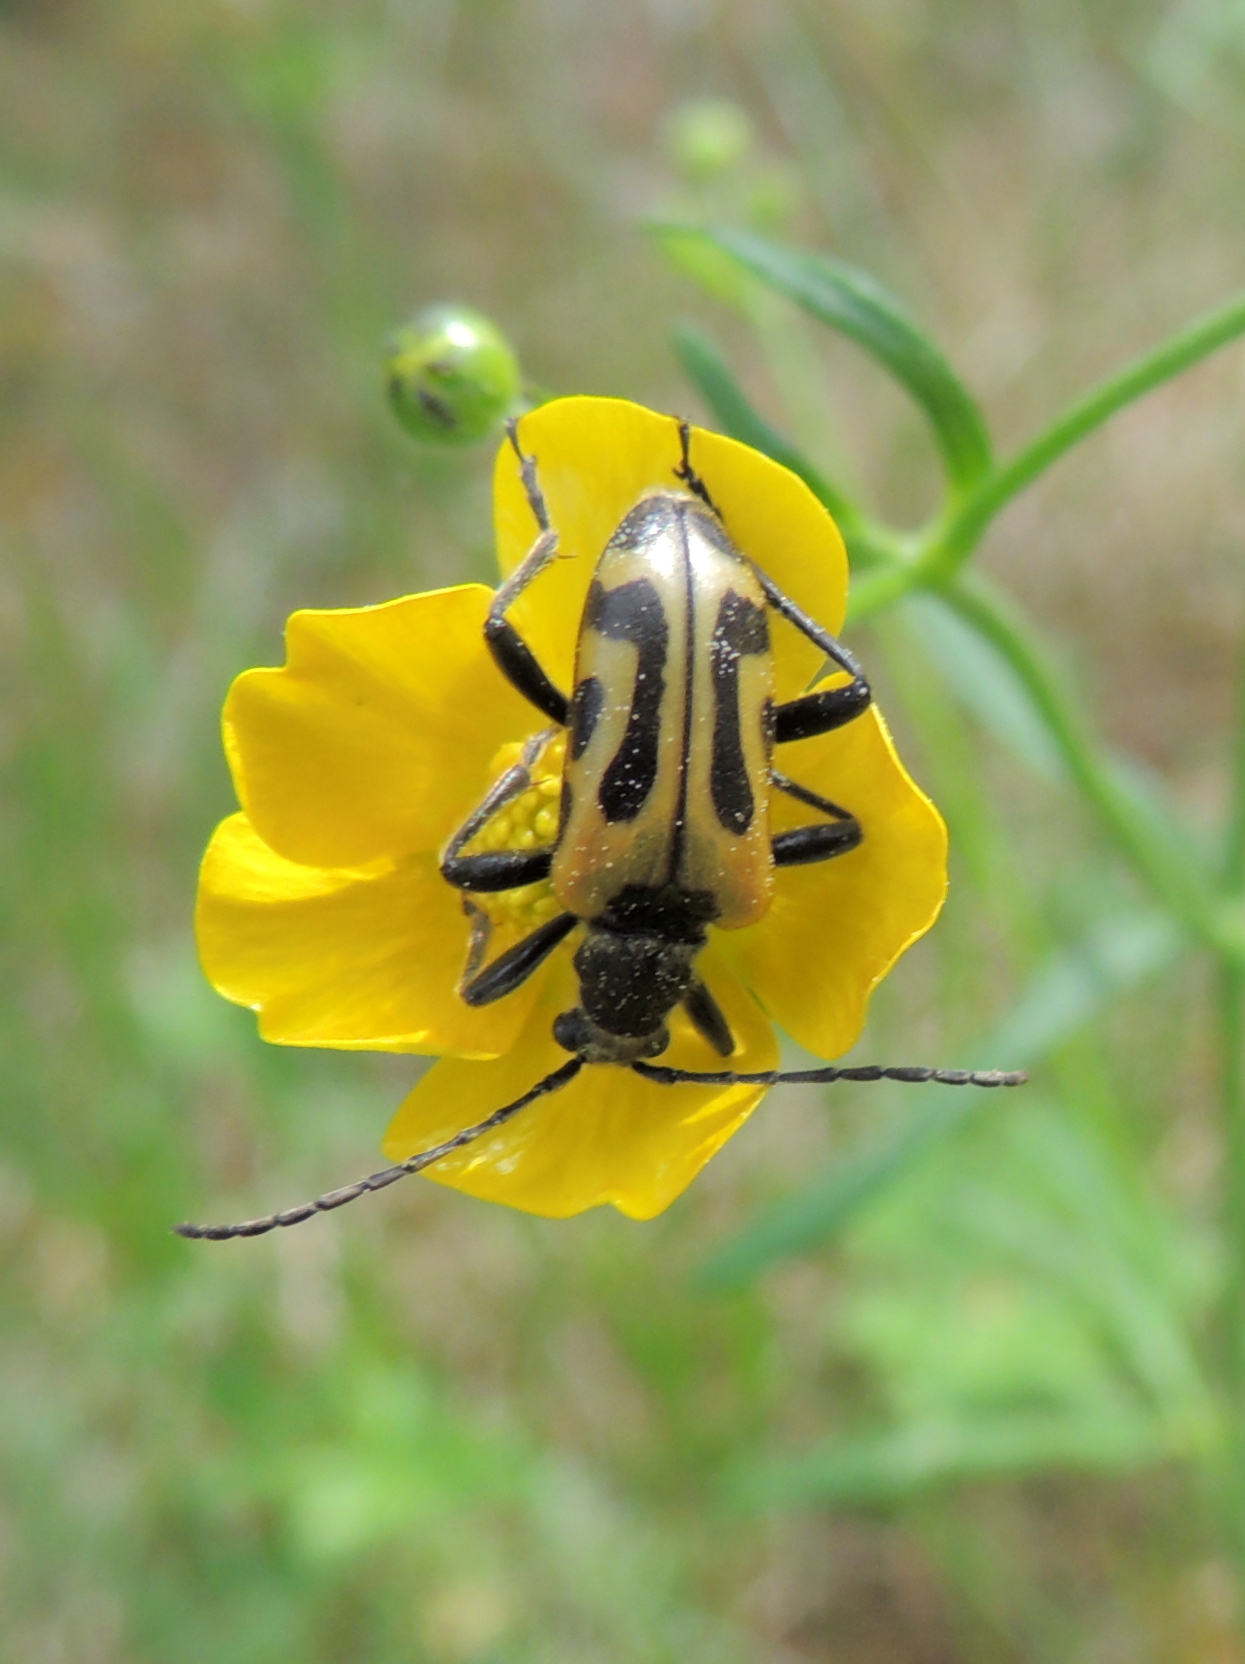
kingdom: Animalia
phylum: Arthropoda
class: Insecta
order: Coleoptera
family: Cerambycidae
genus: Brachyta
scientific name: Brachyta interrogationis
